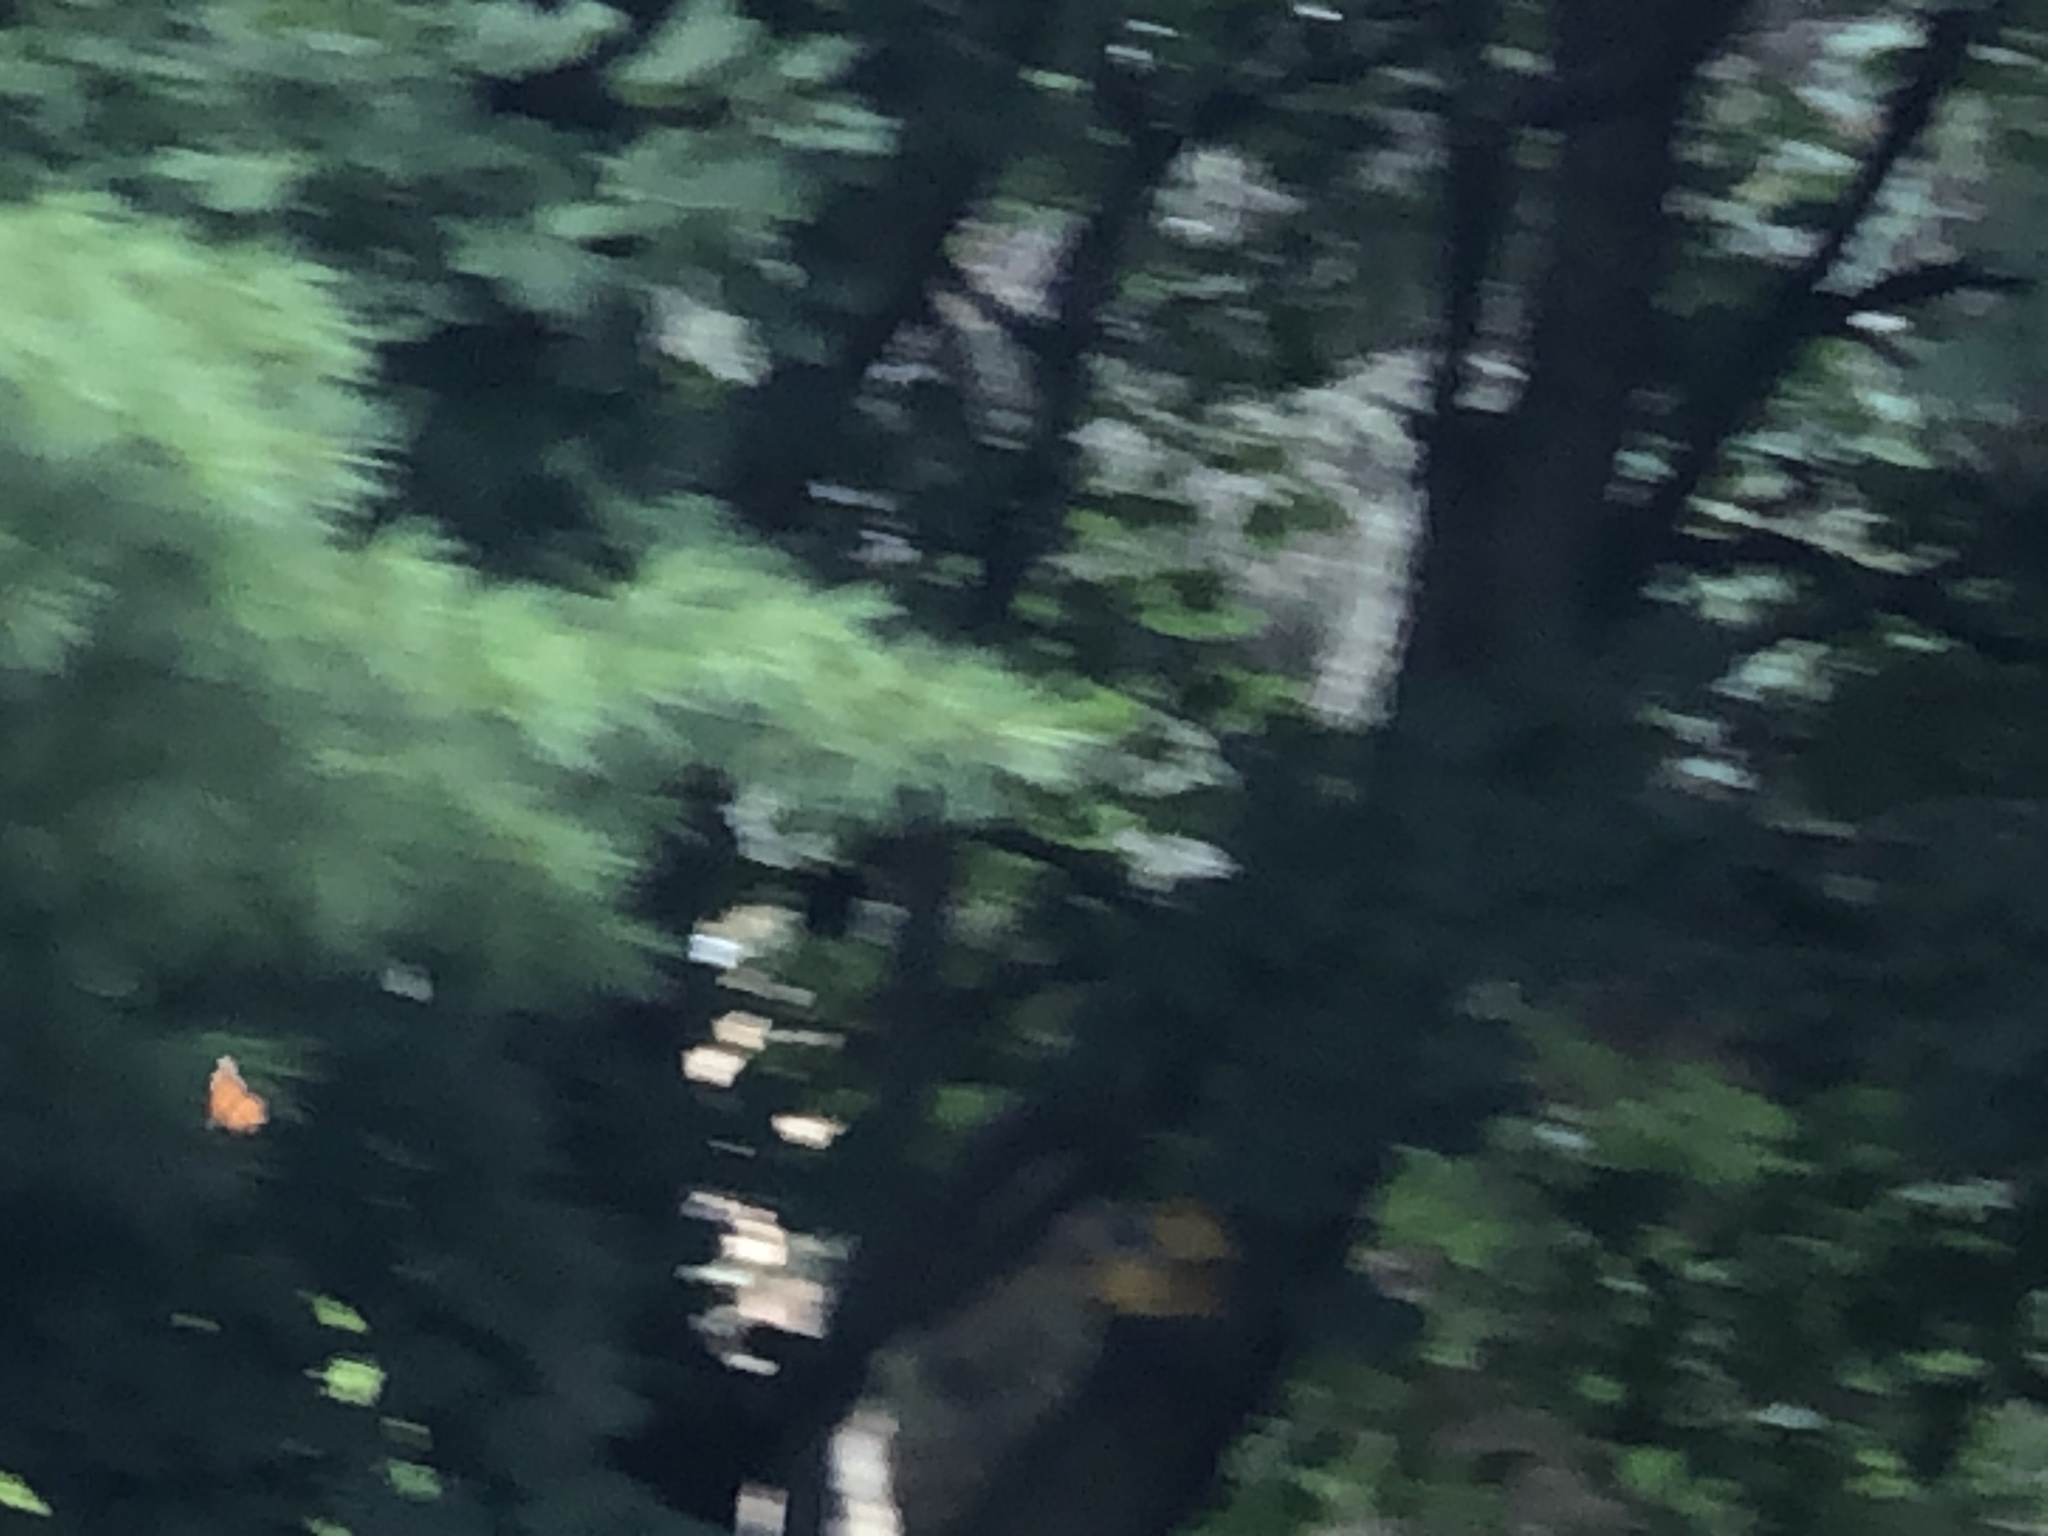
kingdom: Animalia
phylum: Arthropoda
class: Insecta
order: Lepidoptera
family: Nymphalidae
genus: Danaus
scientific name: Danaus plexippus
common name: Monarch
